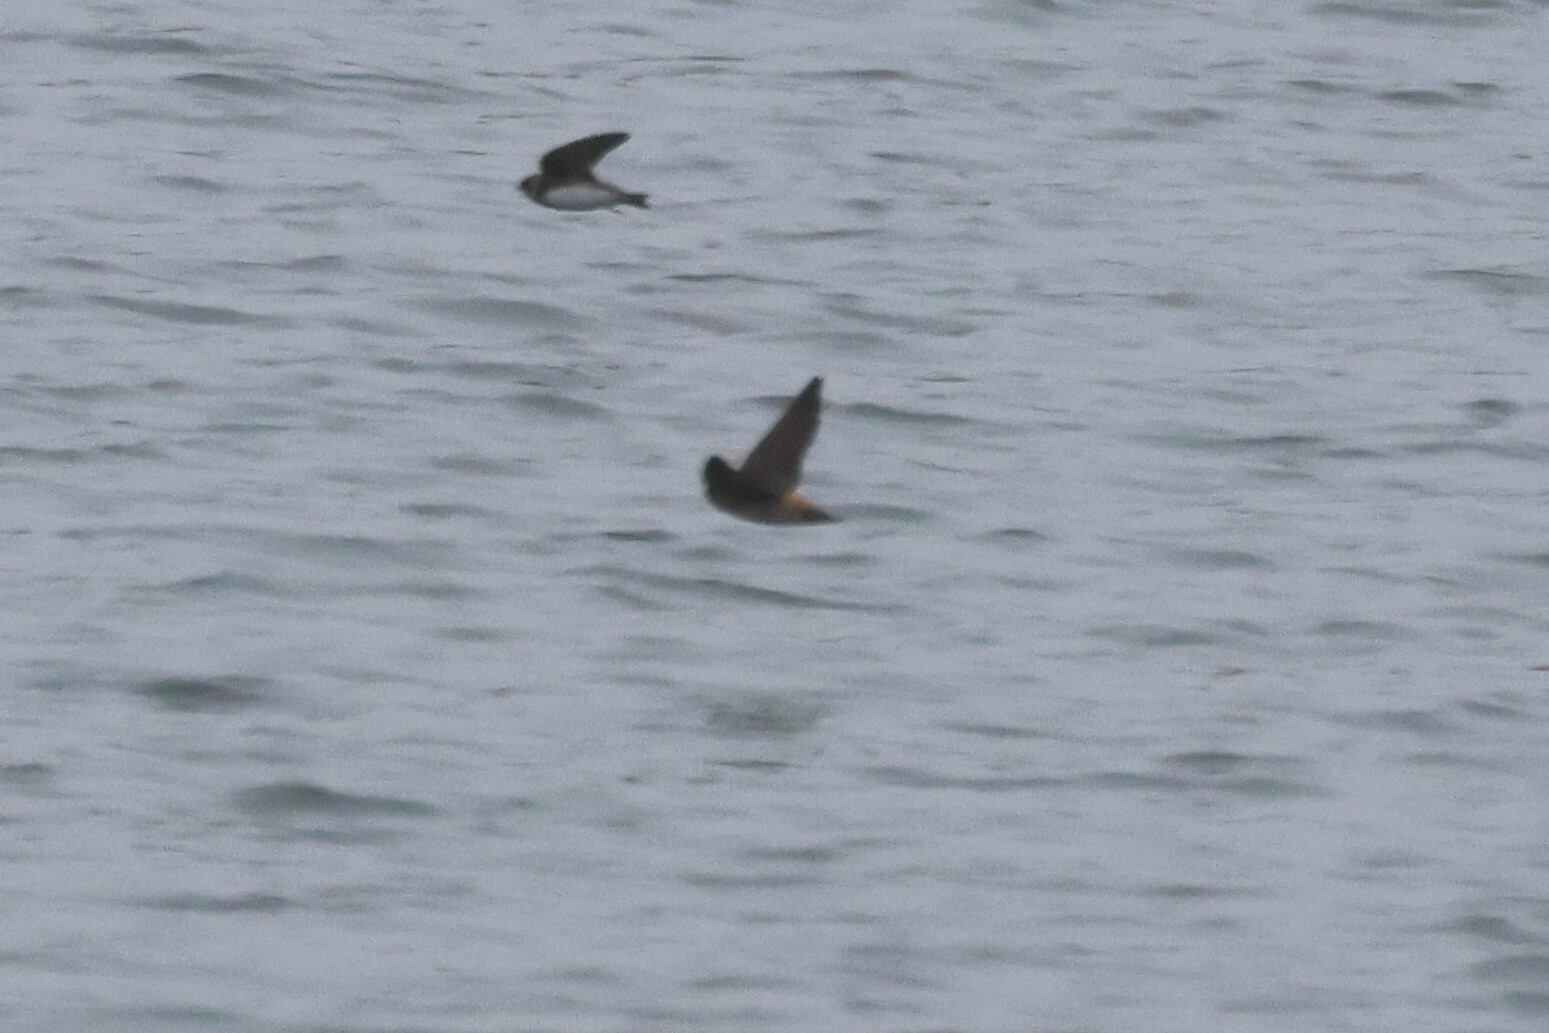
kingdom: Animalia
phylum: Chordata
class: Aves
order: Passeriformes
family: Hirundinidae
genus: Petrochelidon
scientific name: Petrochelidon pyrrhonota
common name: American cliff swallow
